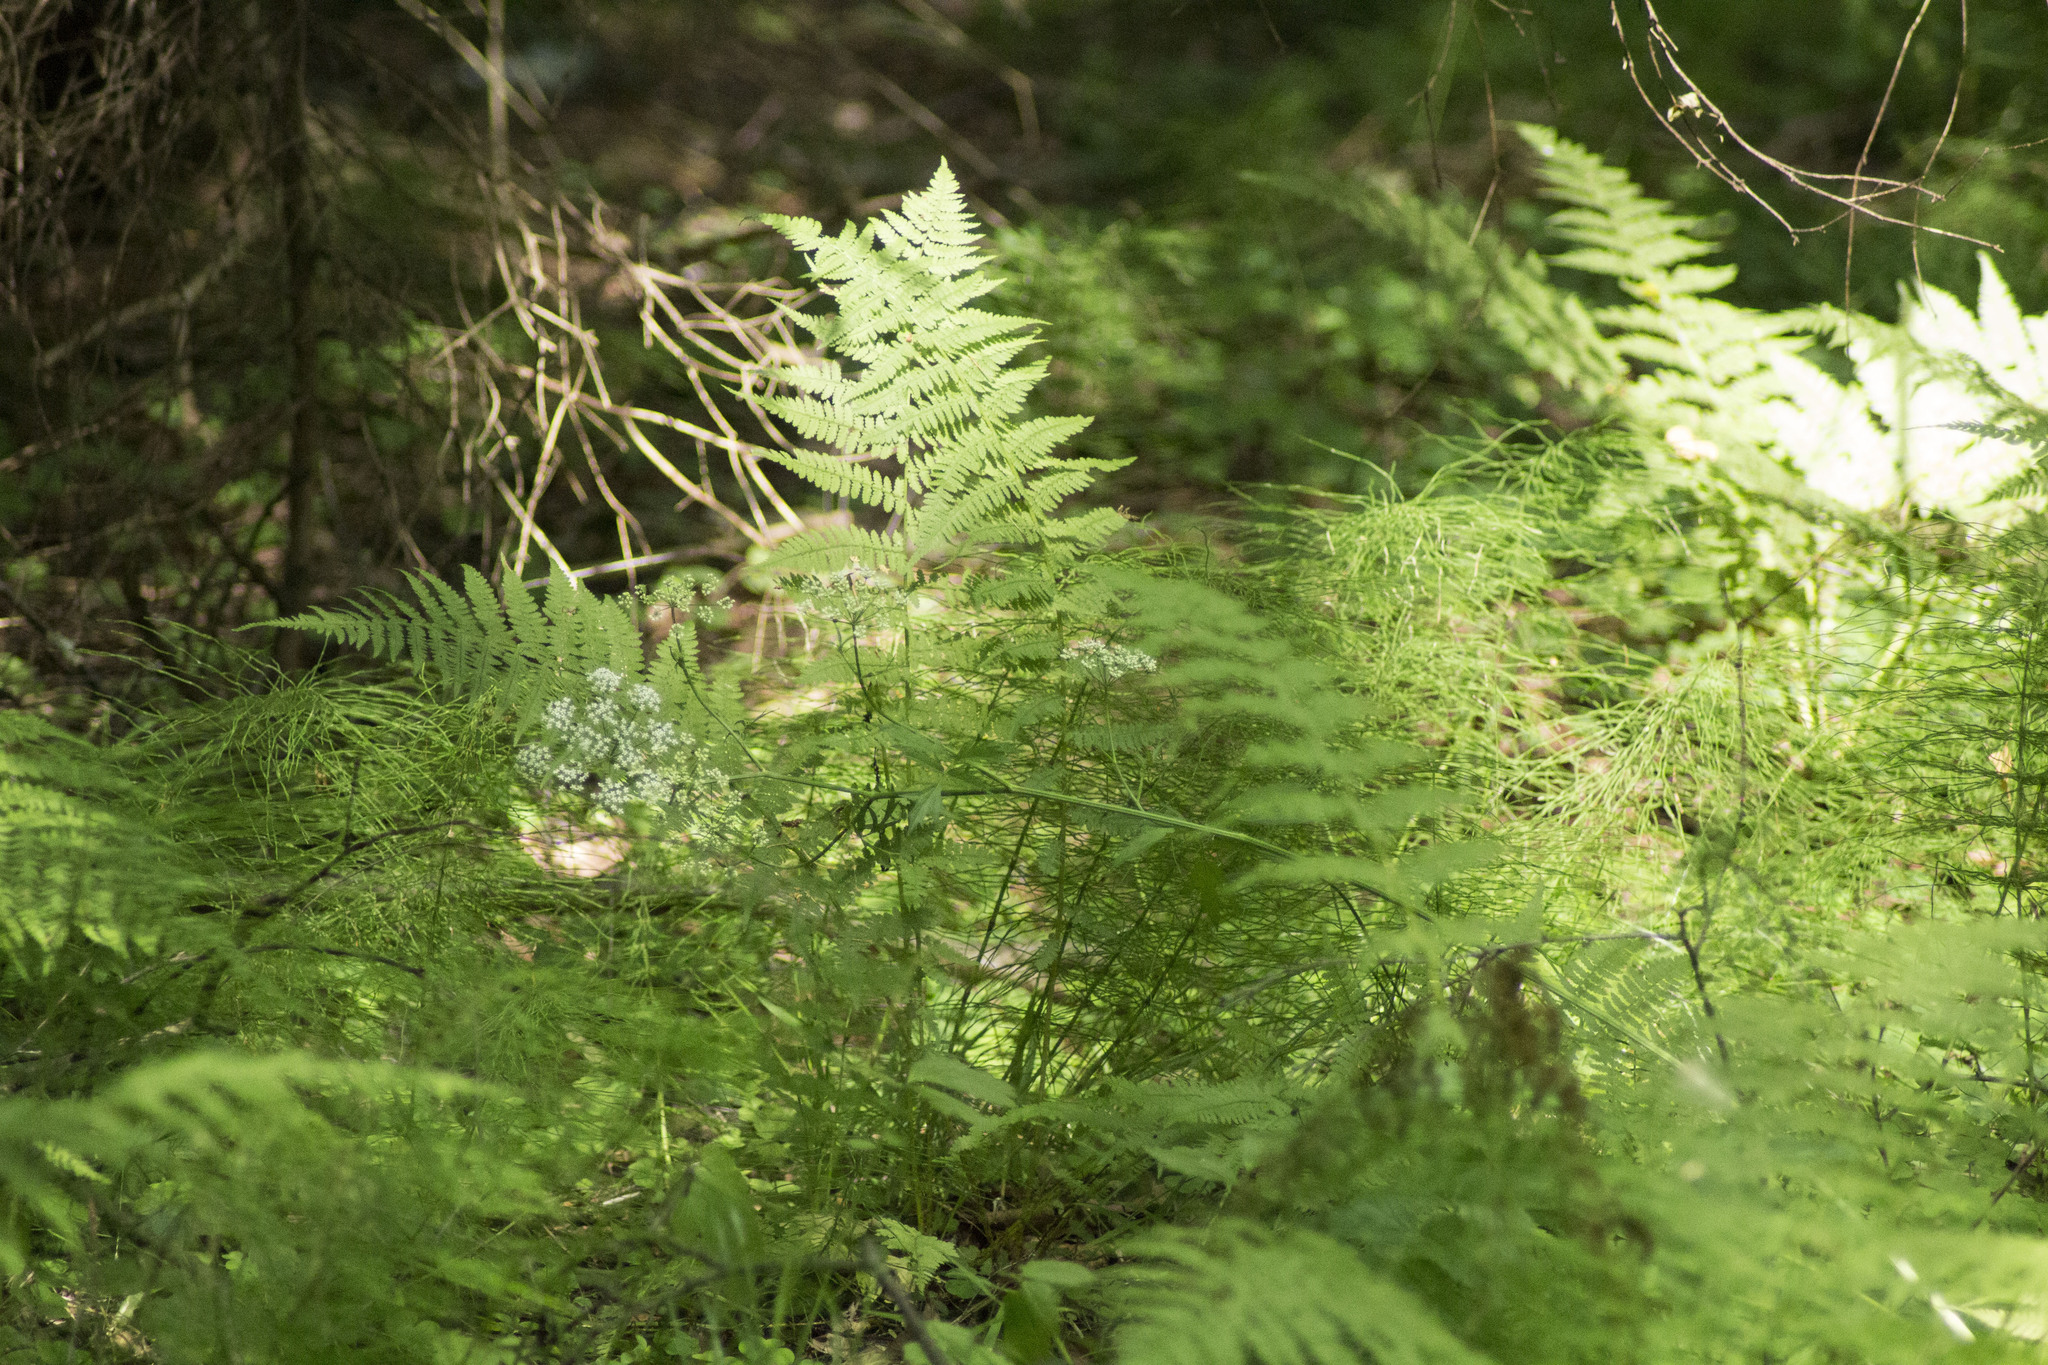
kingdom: Plantae
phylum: Tracheophyta
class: Polypodiopsida
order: Polypodiales
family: Athyriaceae
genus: Athyrium
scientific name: Athyrium filix-femina
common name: Lady fern
